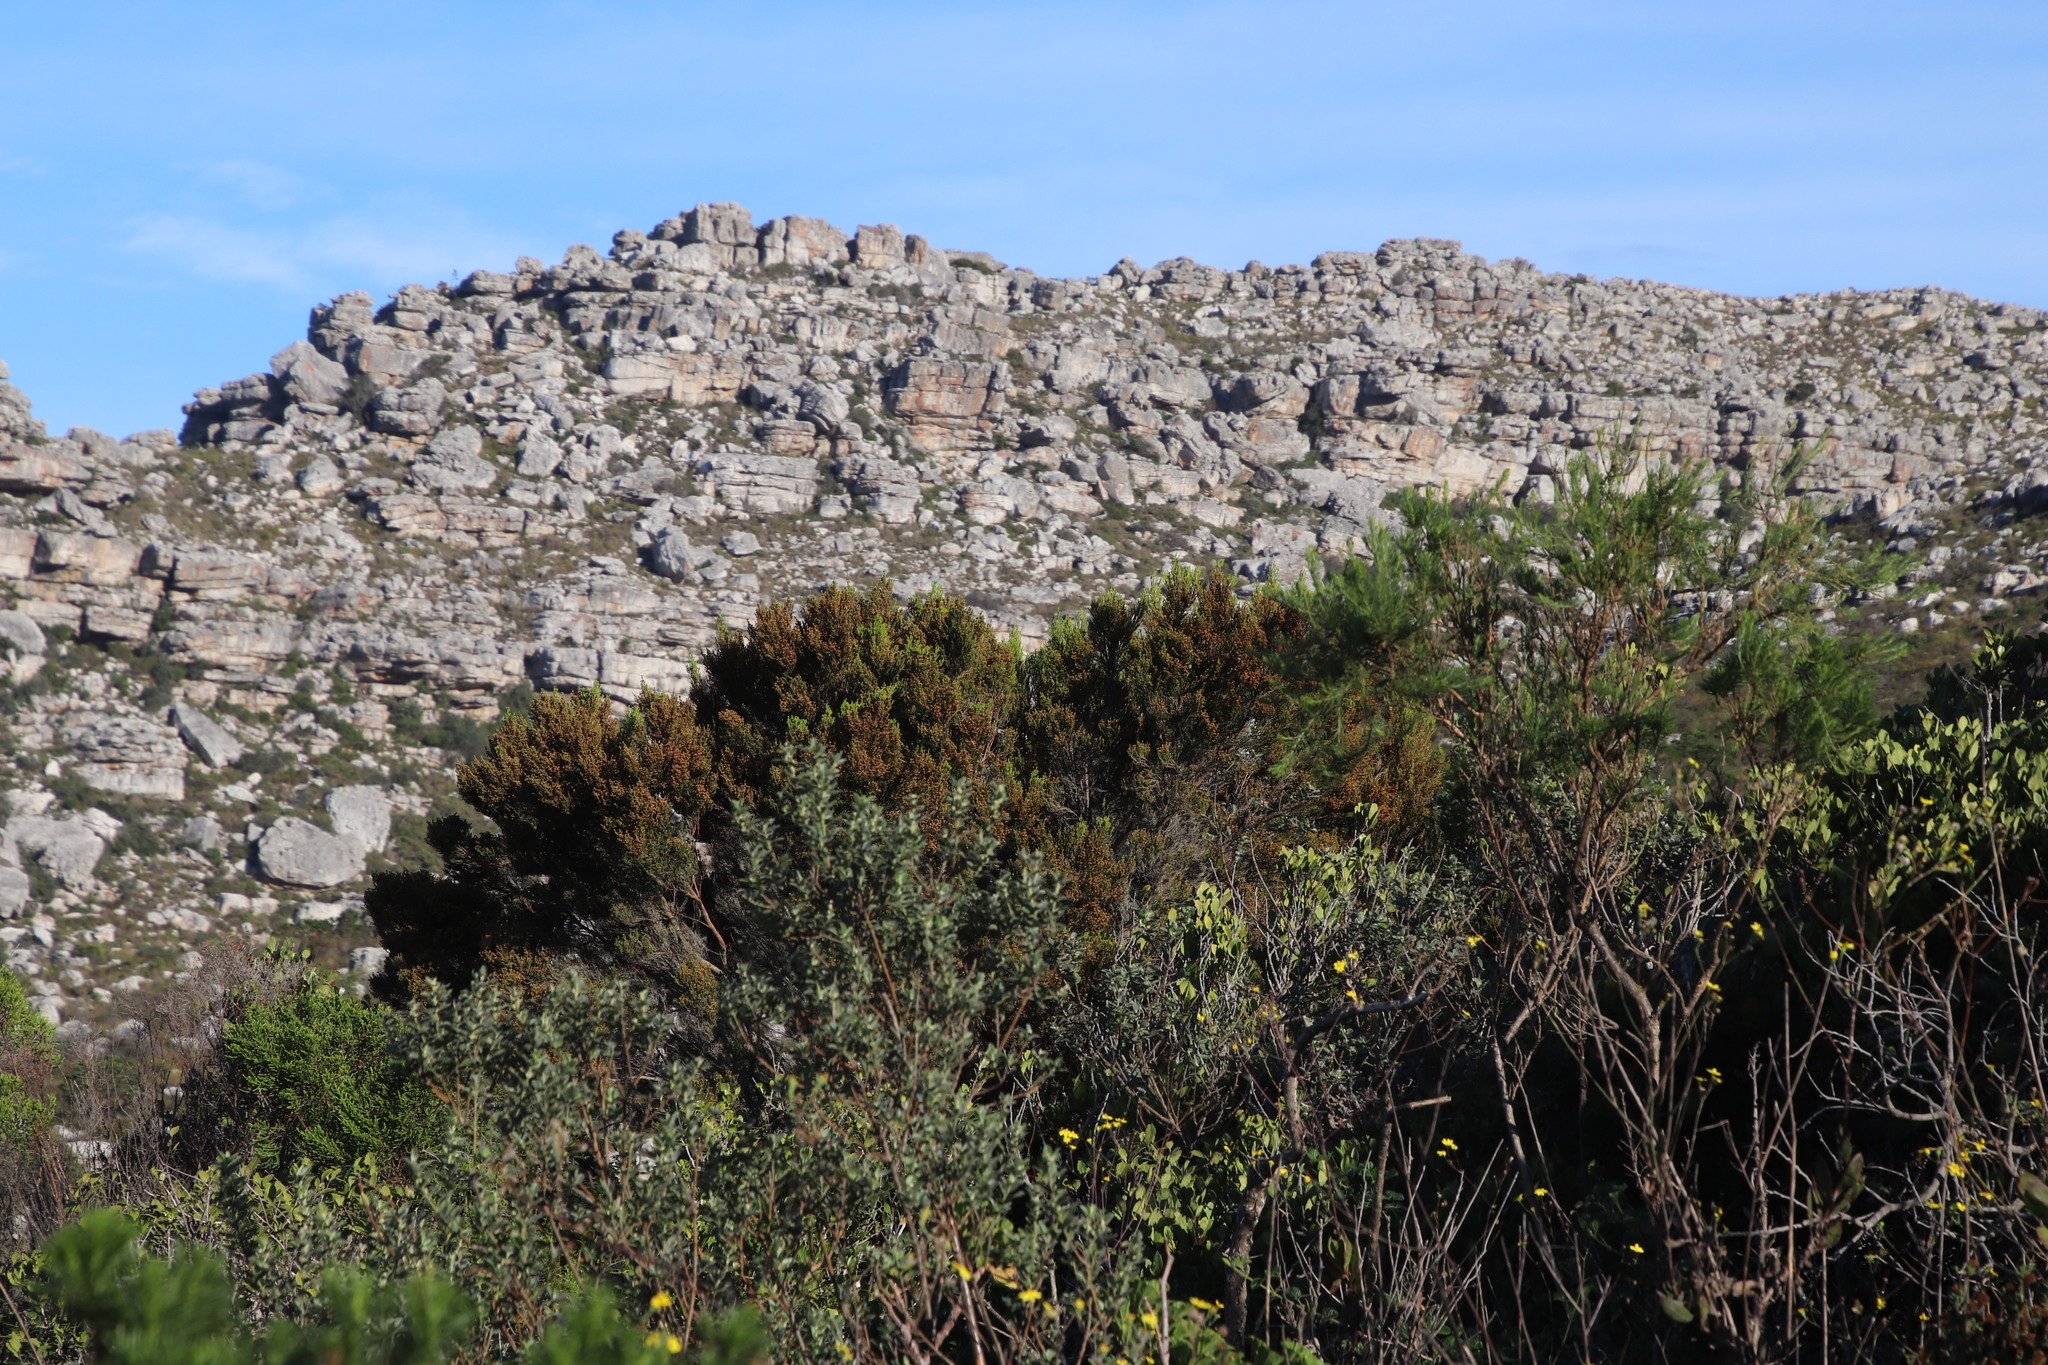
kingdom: Plantae
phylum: Tracheophyta
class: Magnoliopsida
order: Ericales
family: Ericaceae
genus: Erica
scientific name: Erica tristis
